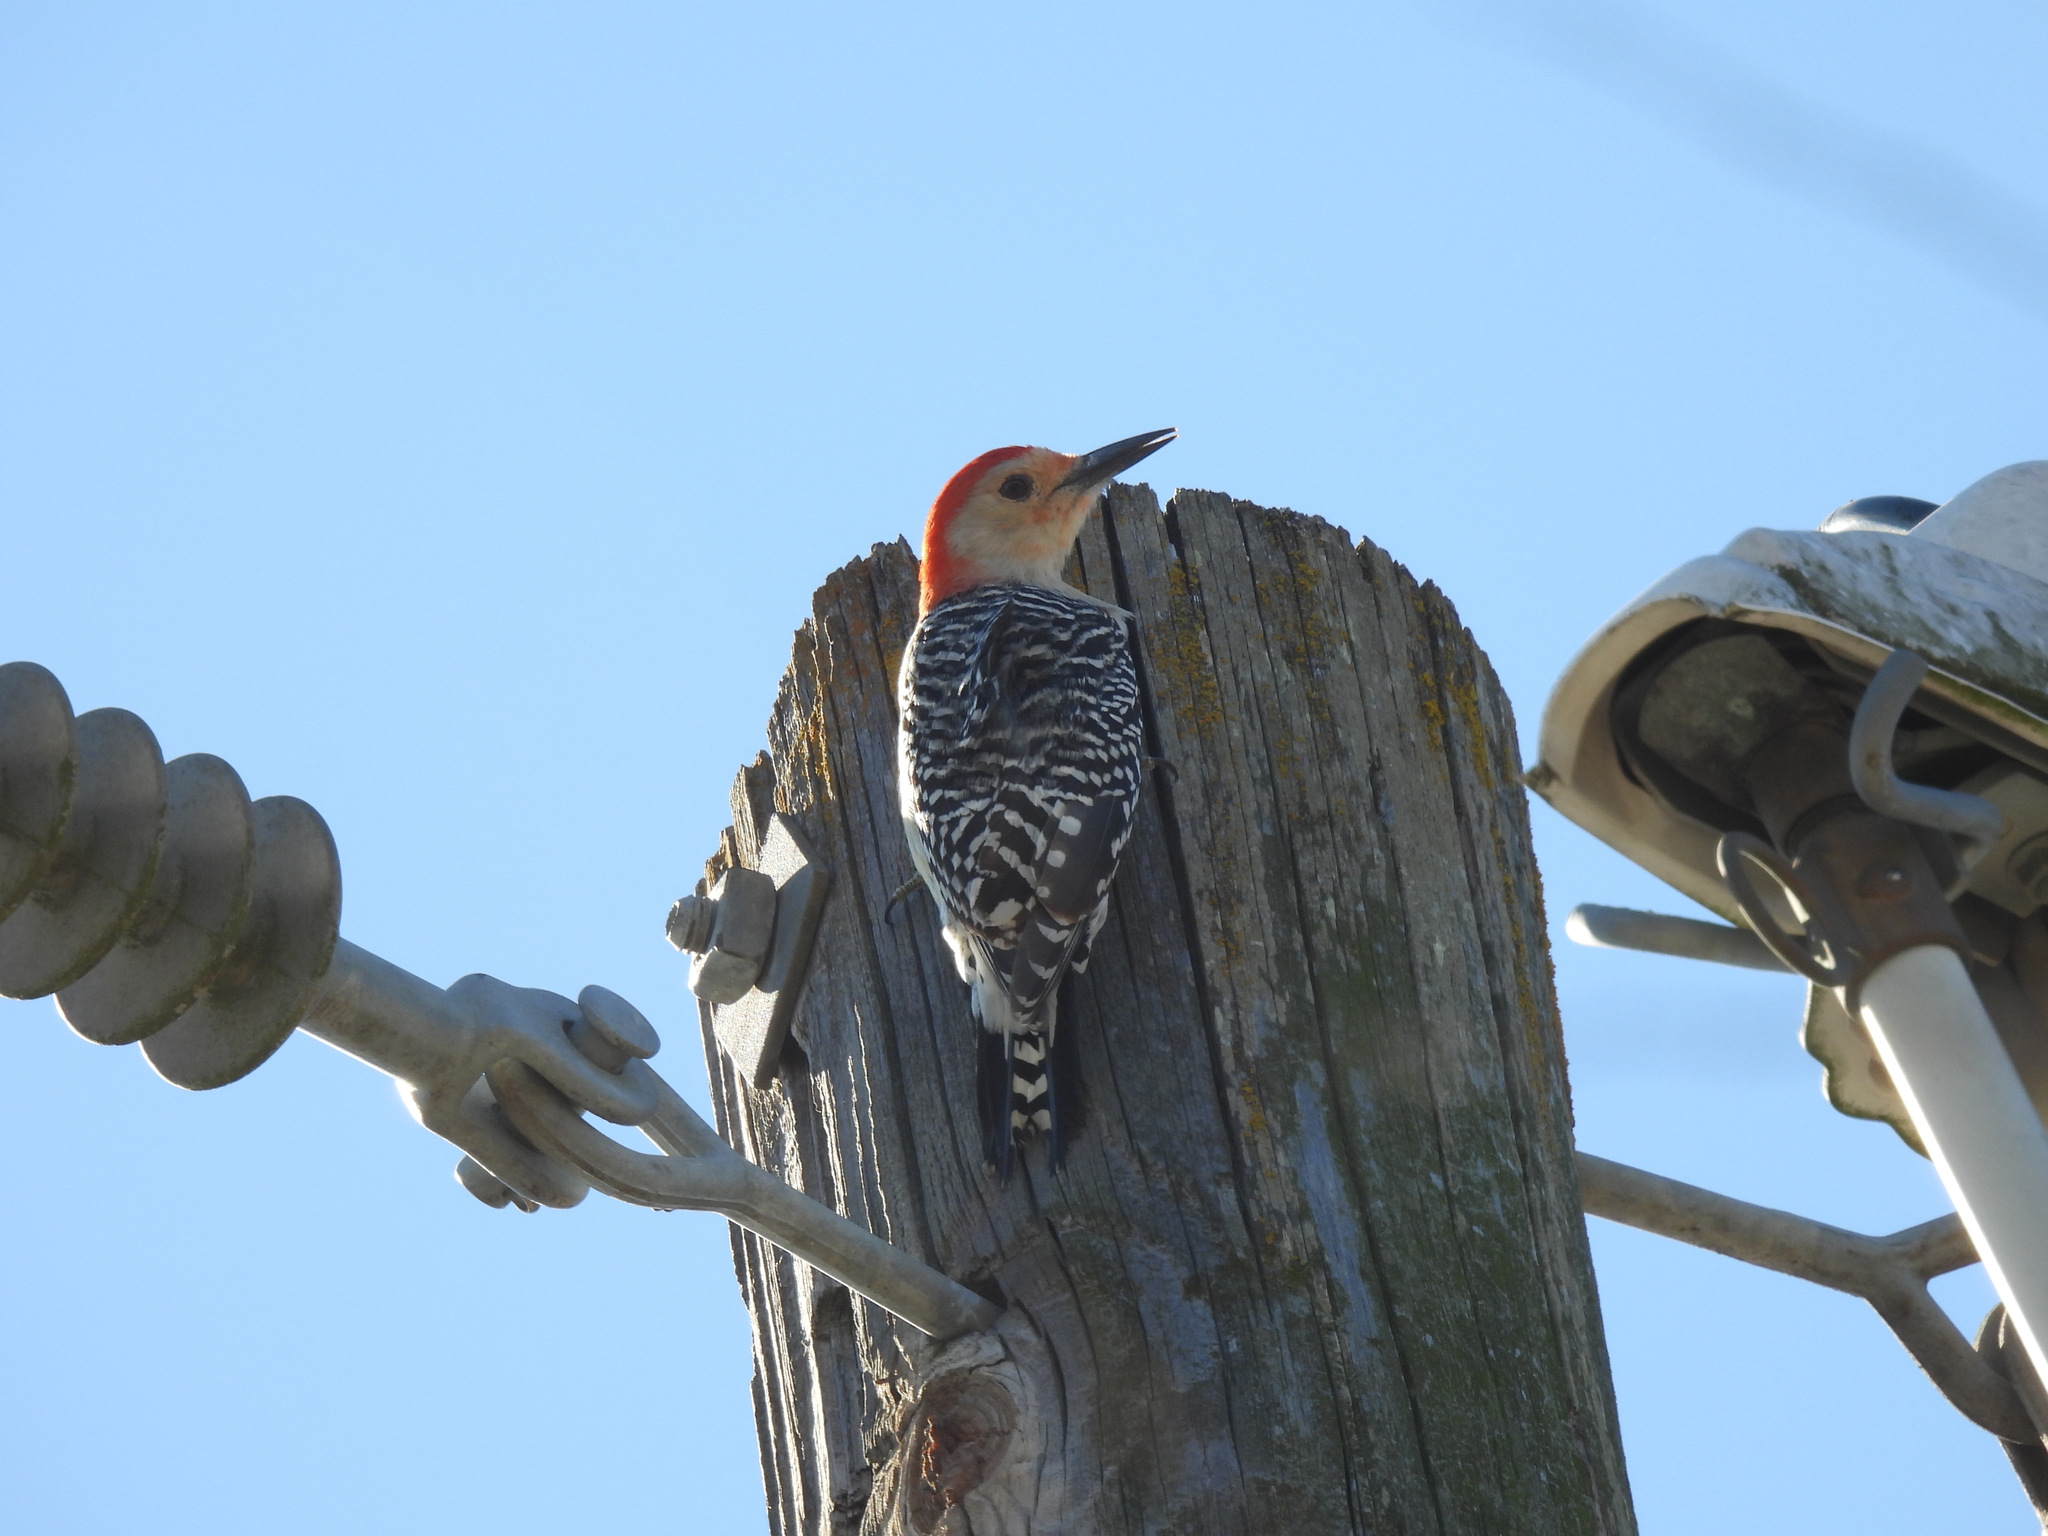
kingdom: Animalia
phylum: Chordata
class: Aves
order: Piciformes
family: Picidae
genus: Melanerpes
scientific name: Melanerpes carolinus
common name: Red-bellied woodpecker
